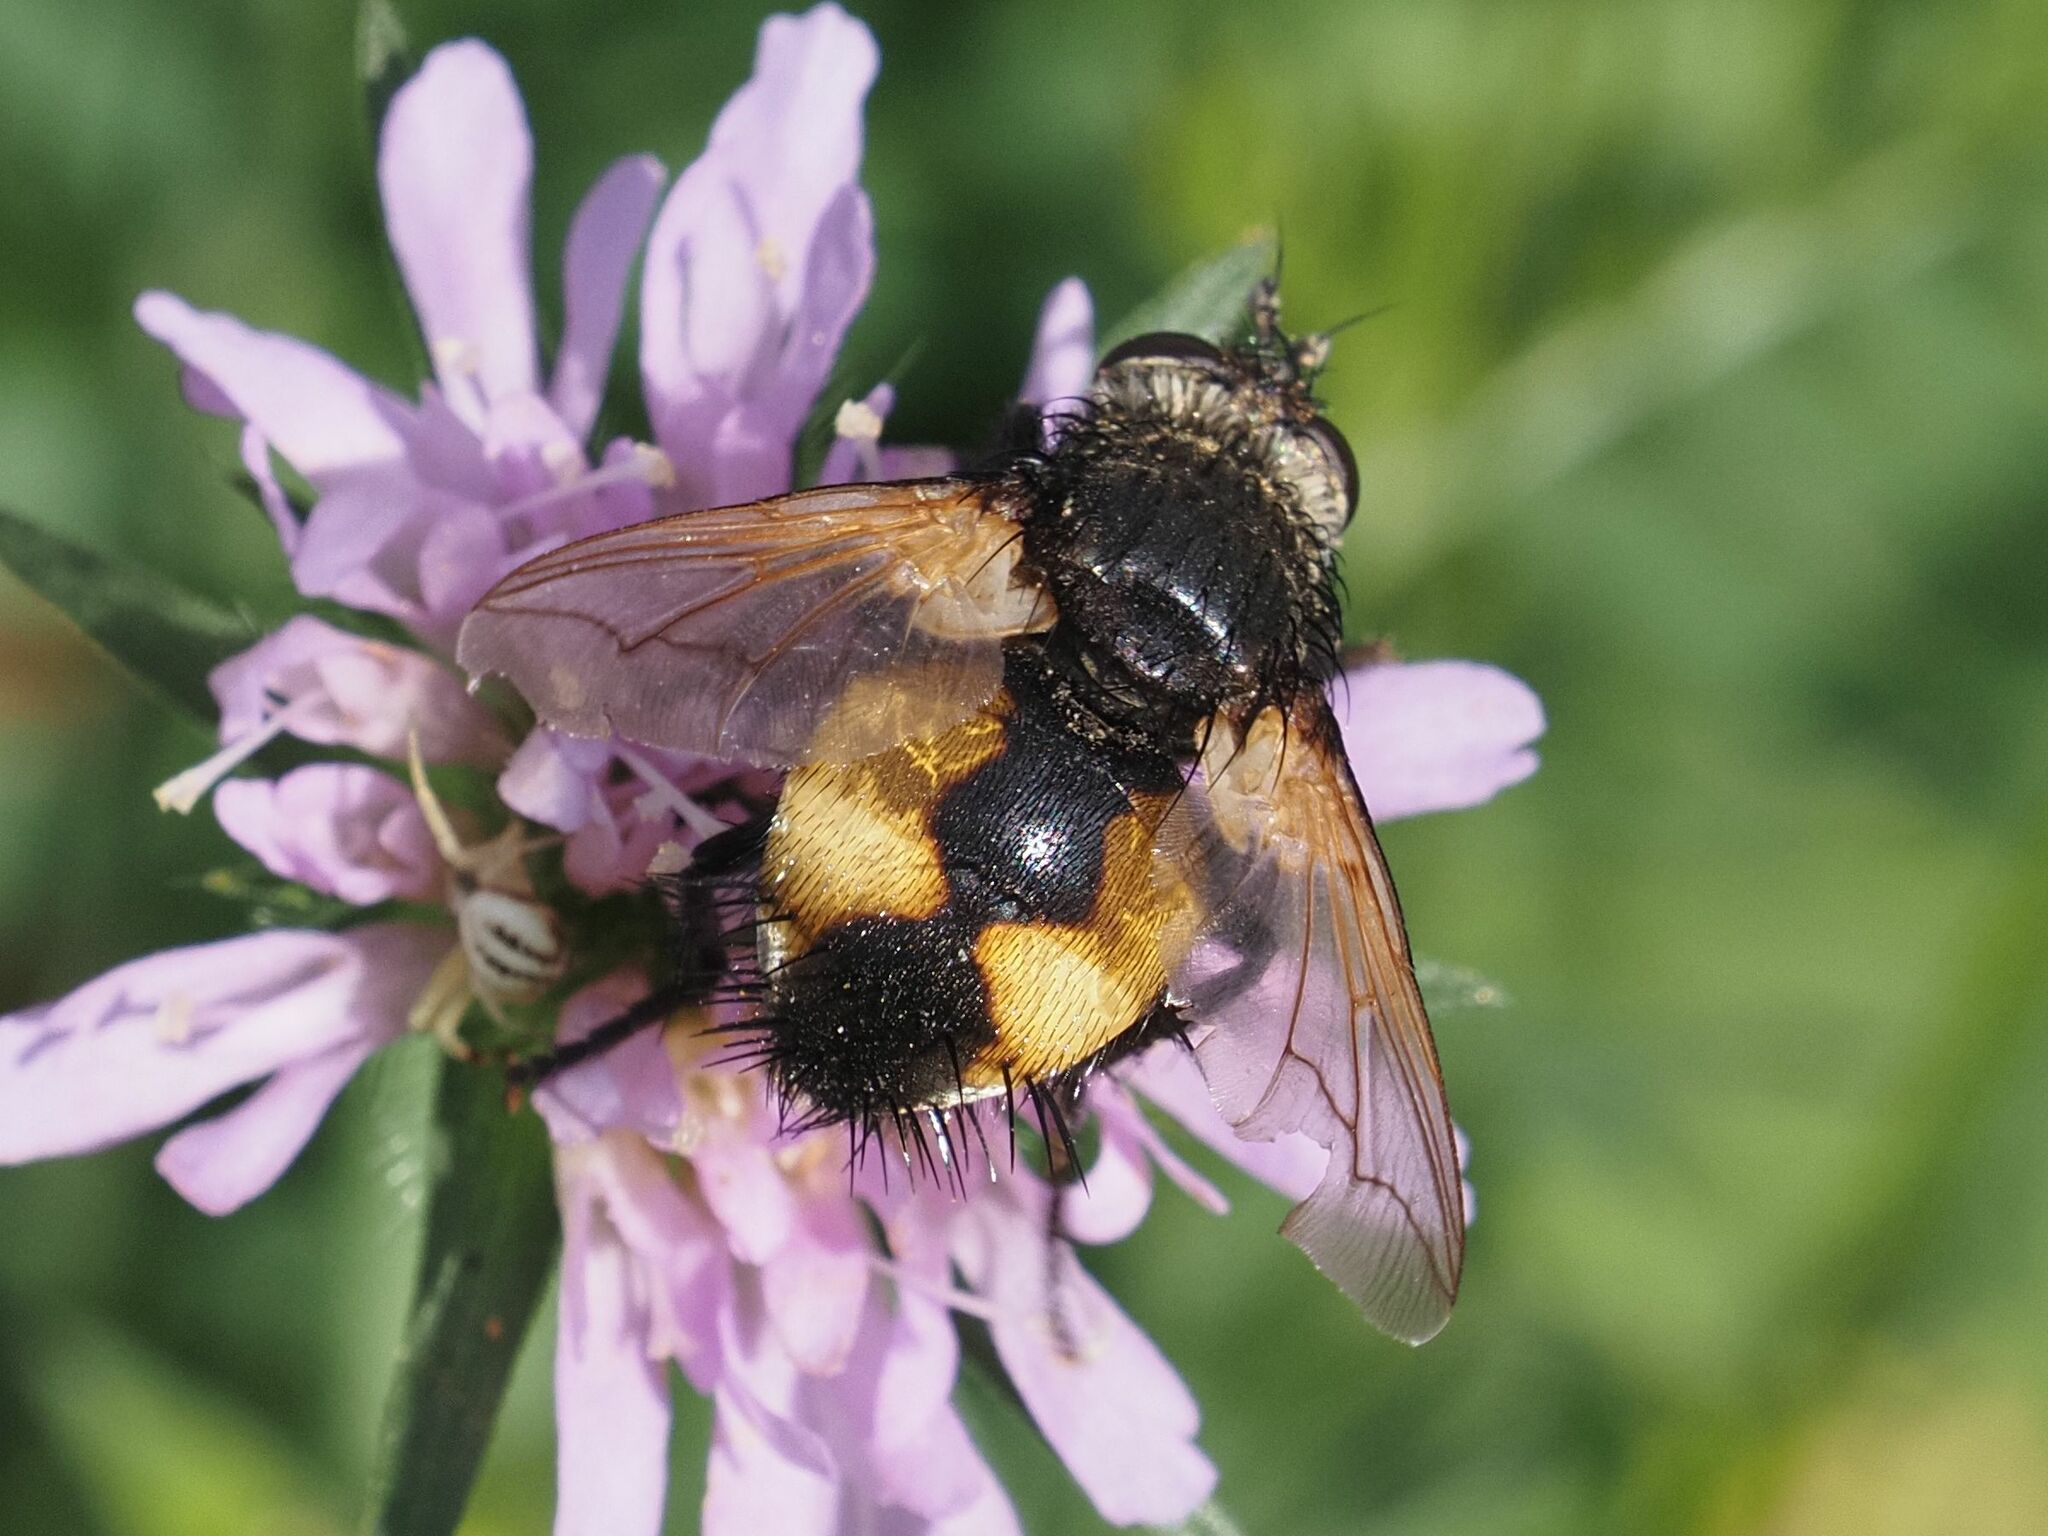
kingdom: Animalia
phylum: Arthropoda
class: Insecta
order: Diptera
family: Tachinidae
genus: Nowickia
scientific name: Nowickia ferox
